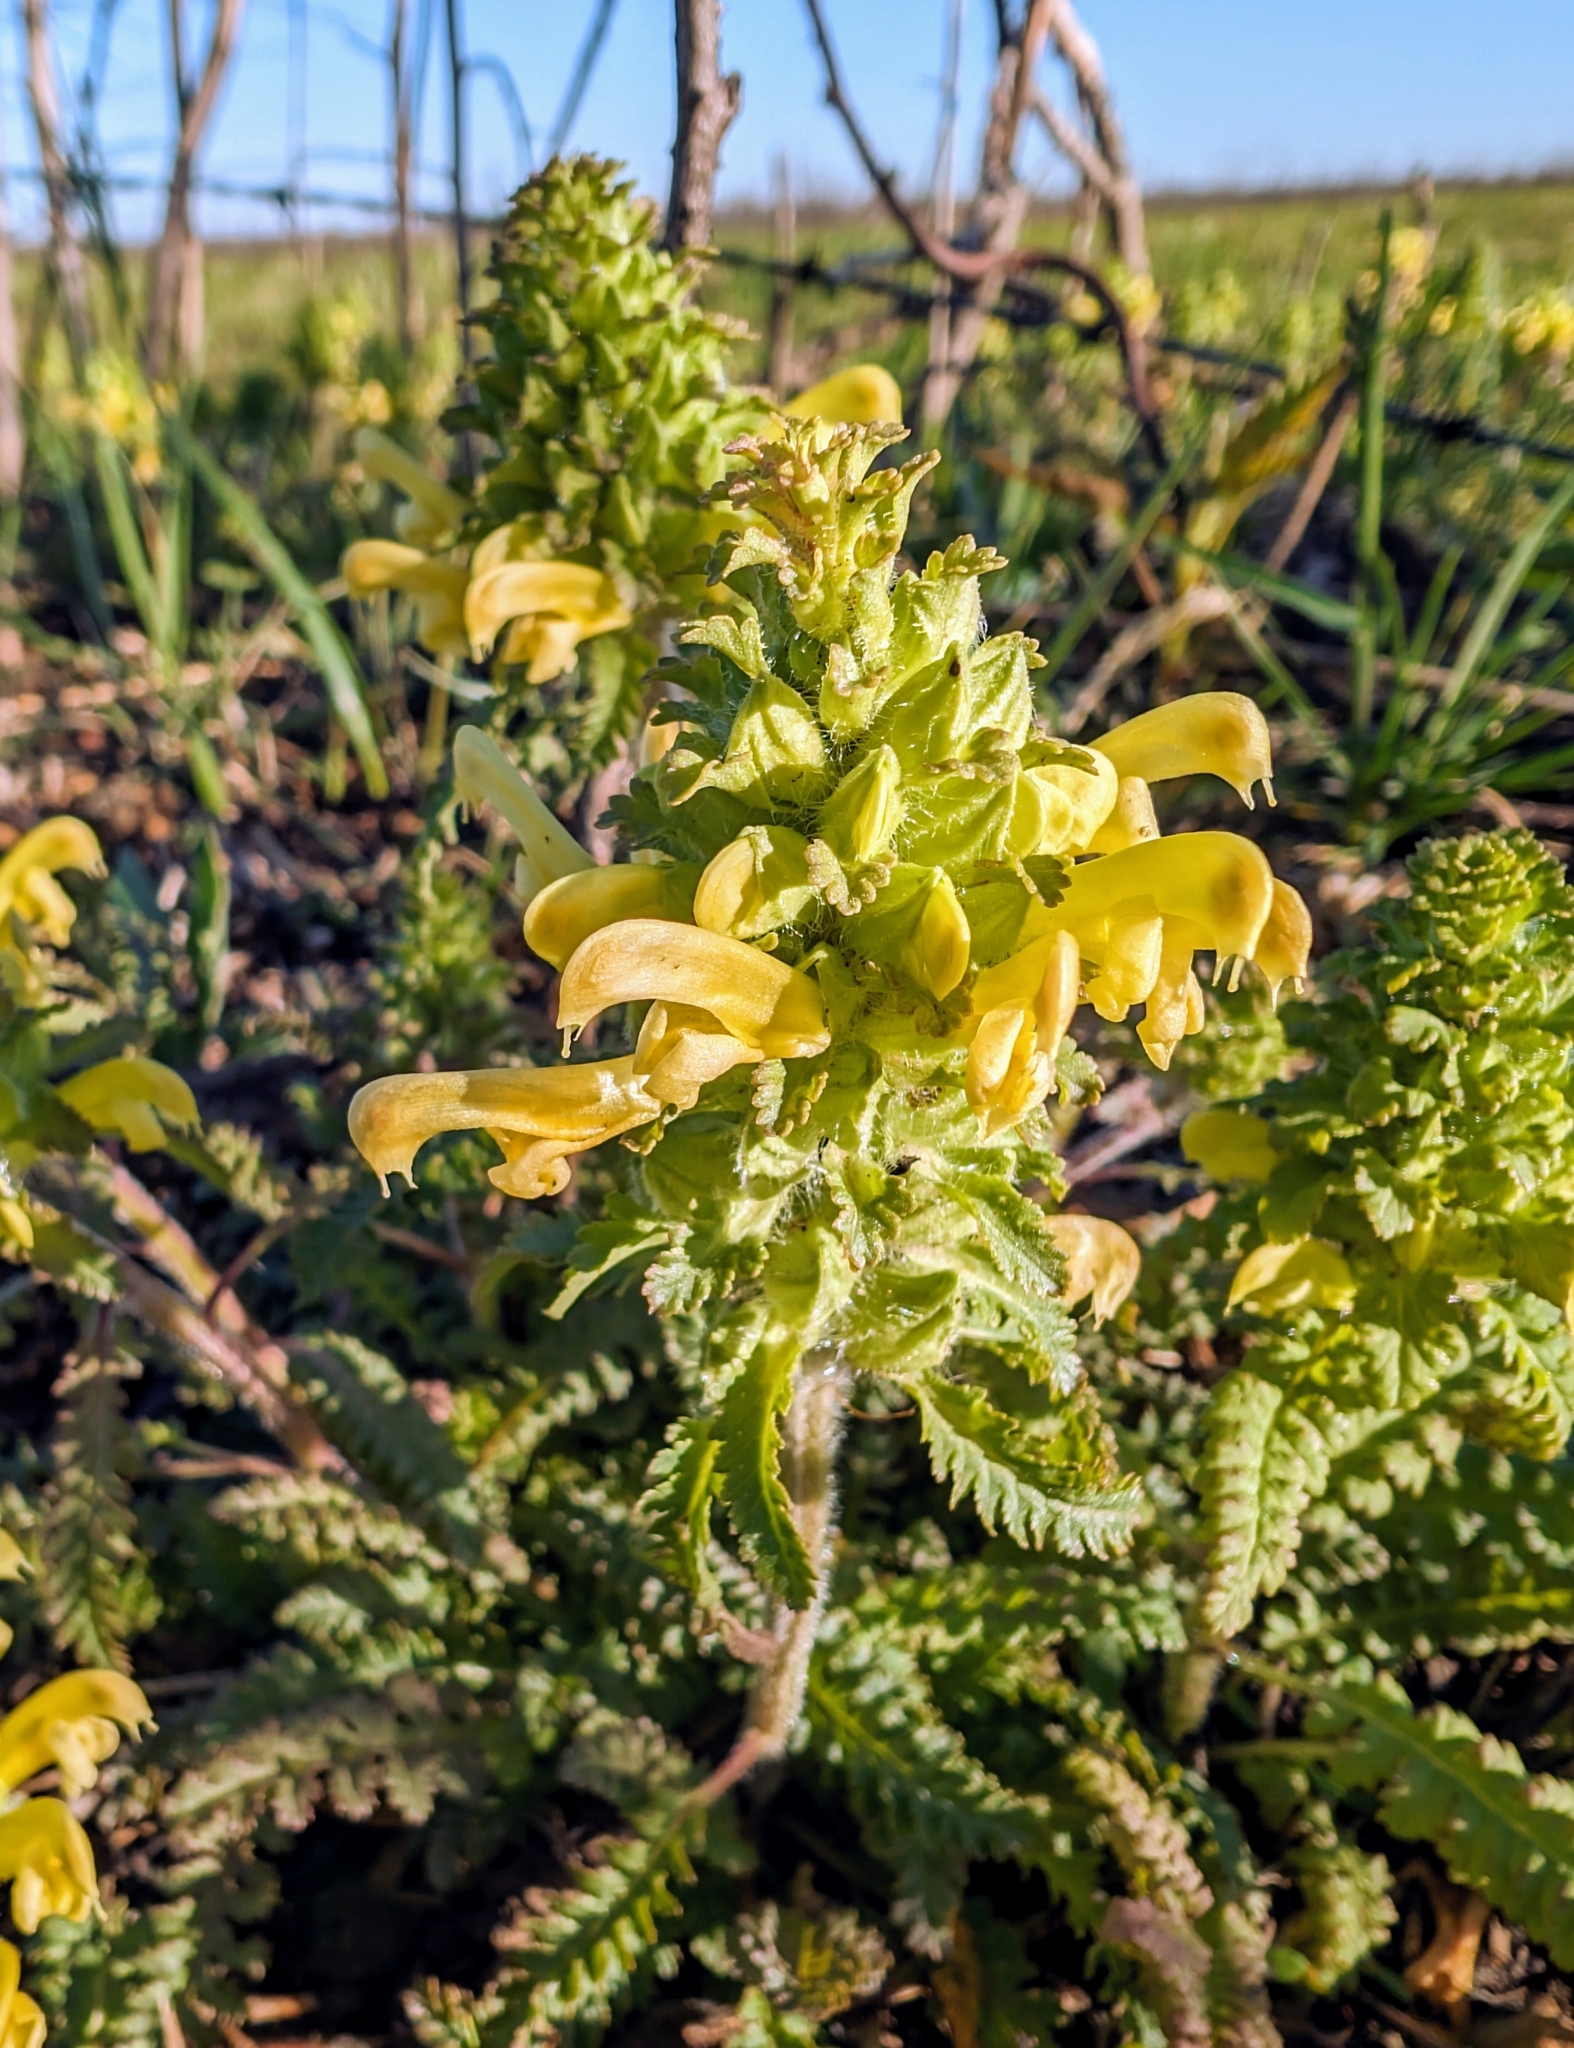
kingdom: Plantae
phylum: Tracheophyta
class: Magnoliopsida
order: Lamiales
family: Orobanchaceae
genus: Pedicularis
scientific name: Pedicularis canadensis
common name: Early lousewort
